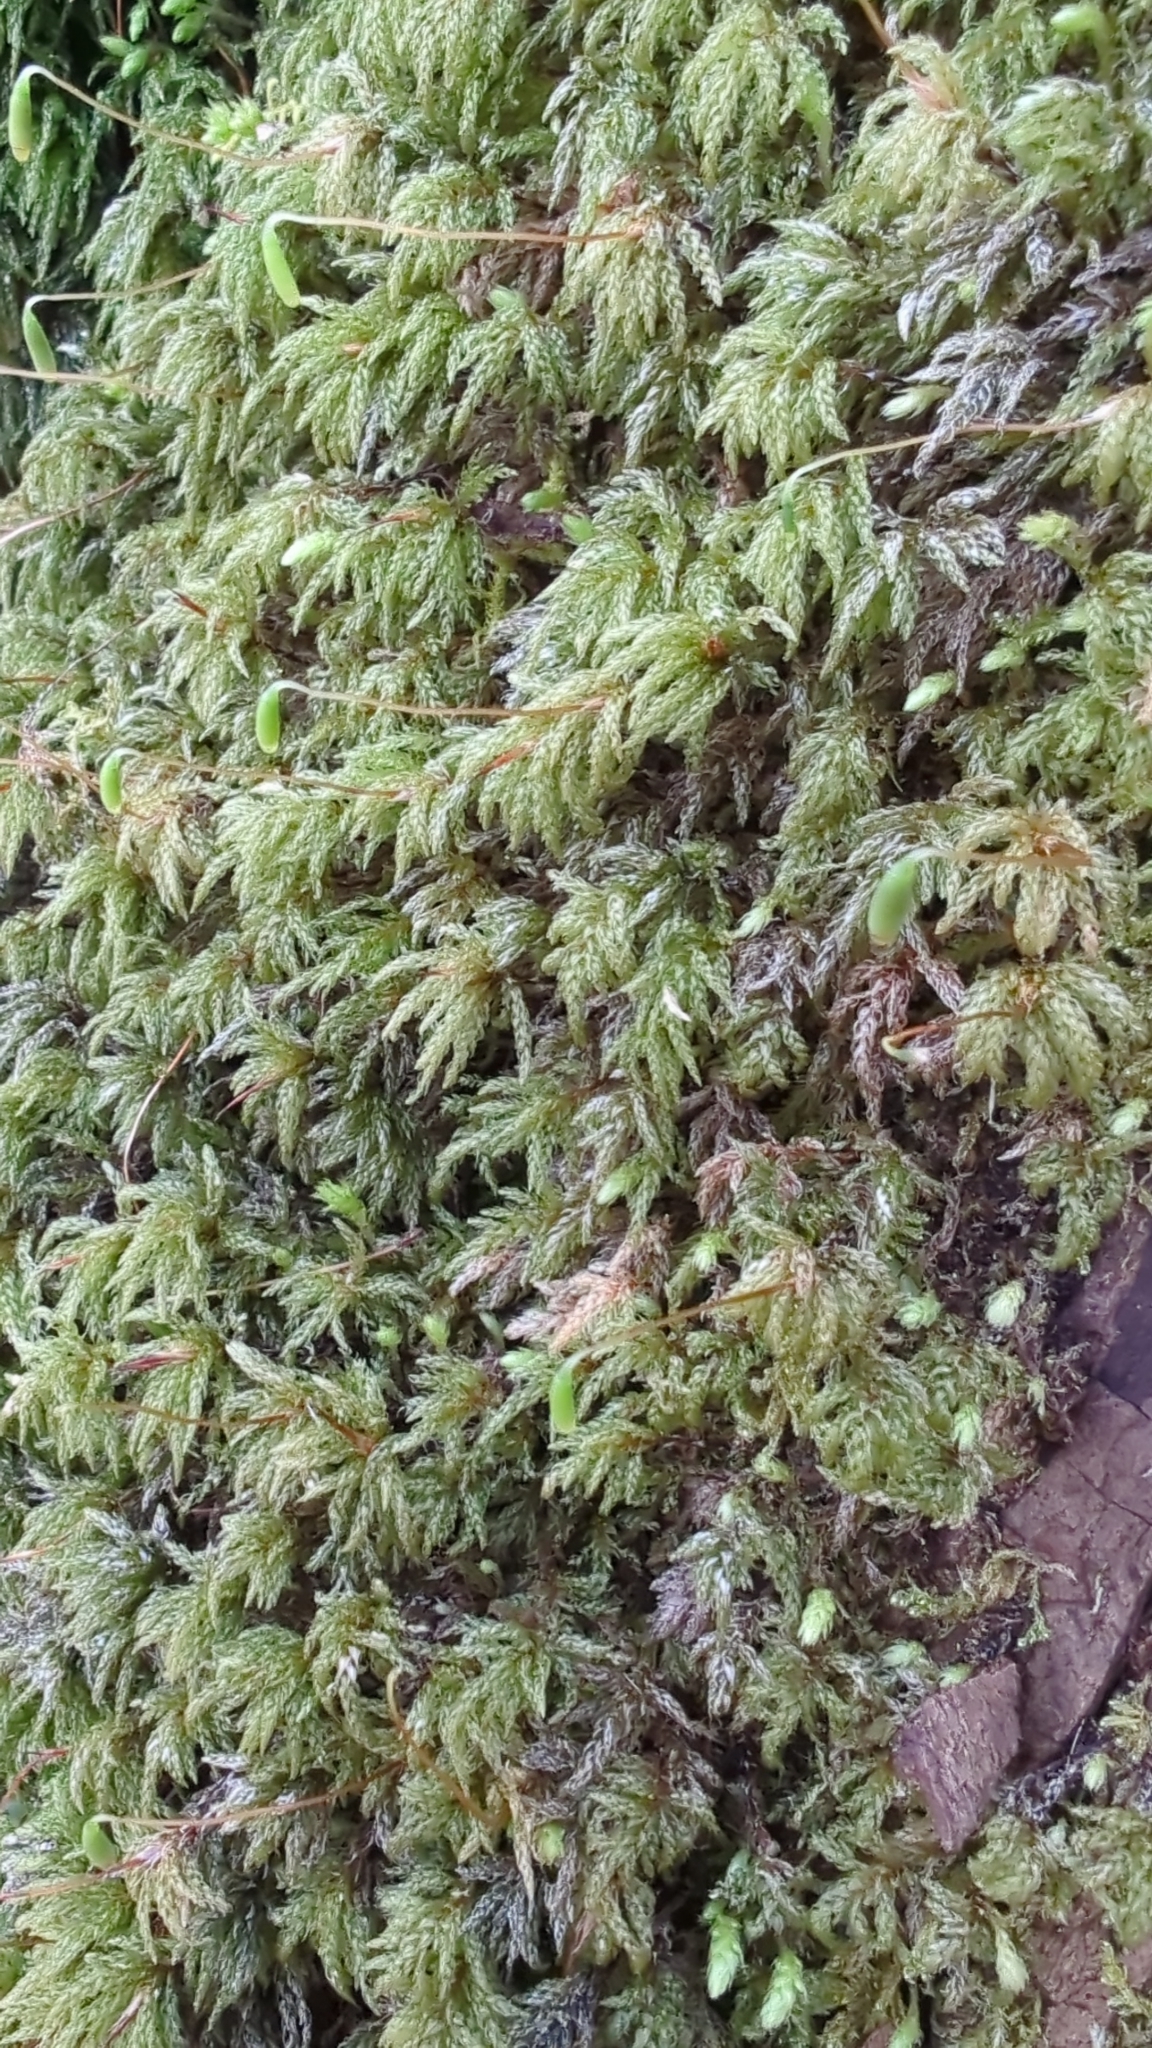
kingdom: Plantae
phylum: Bryophyta
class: Bryopsida
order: Bryales
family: Mniaceae
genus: Leucolepis
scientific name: Leucolepis acanthoneura
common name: Leucolepis umbrella moss
